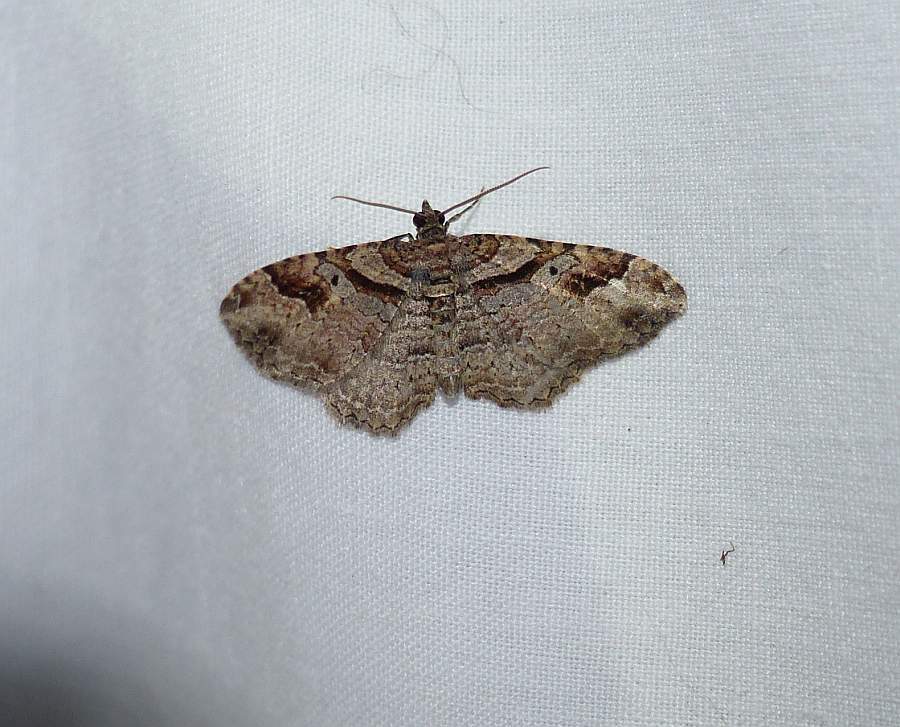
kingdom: Animalia
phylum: Arthropoda
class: Insecta
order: Lepidoptera
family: Geometridae
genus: Costaconvexa
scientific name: Costaconvexa centrostrigaria
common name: Bent-line carpet
